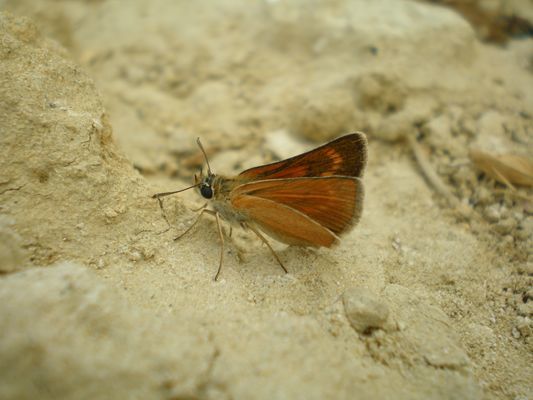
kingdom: Animalia
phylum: Arthropoda
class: Insecta
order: Lepidoptera
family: Hesperiidae
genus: Thymelicus
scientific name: Thymelicus acteon
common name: Lulworth skipper
